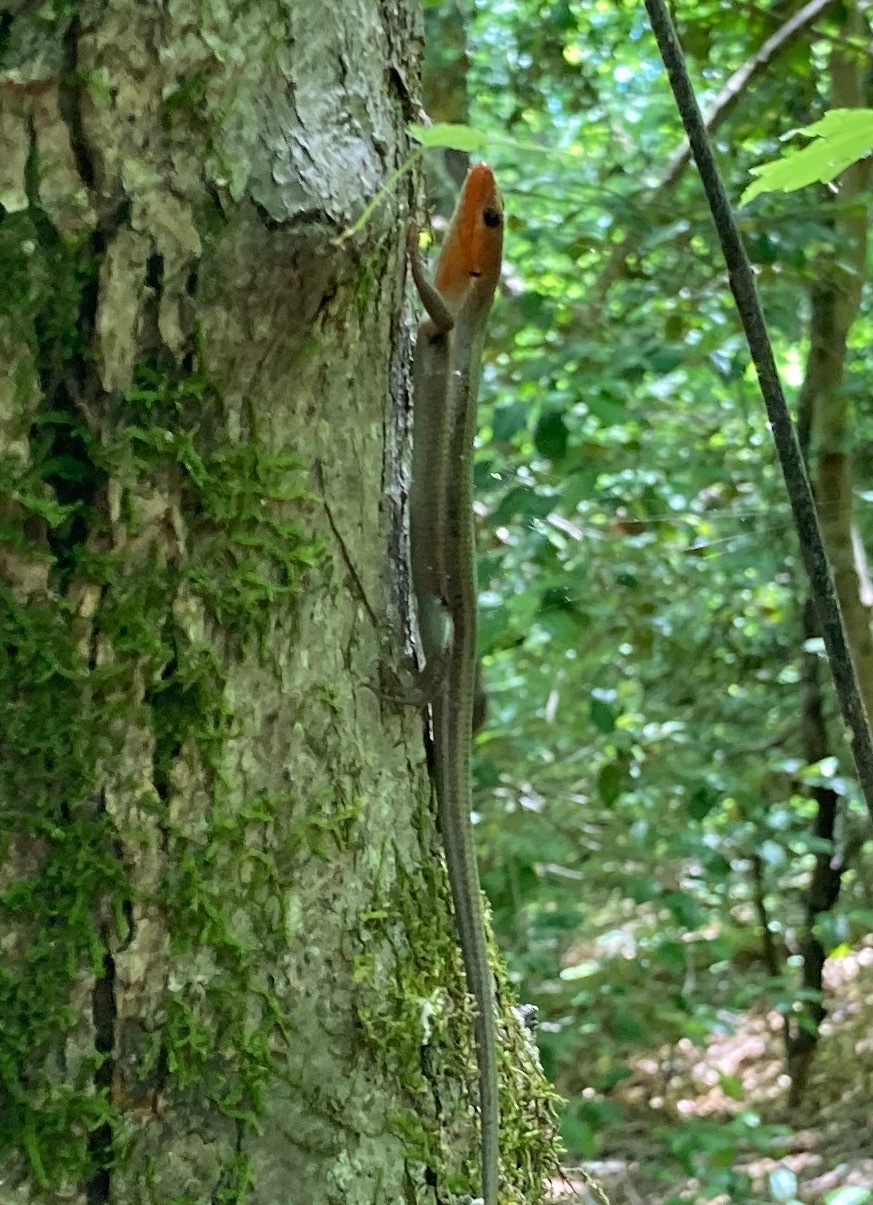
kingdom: Animalia
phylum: Chordata
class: Squamata
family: Scincidae
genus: Plestiodon
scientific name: Plestiodon fasciatus
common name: Five-lined skink
